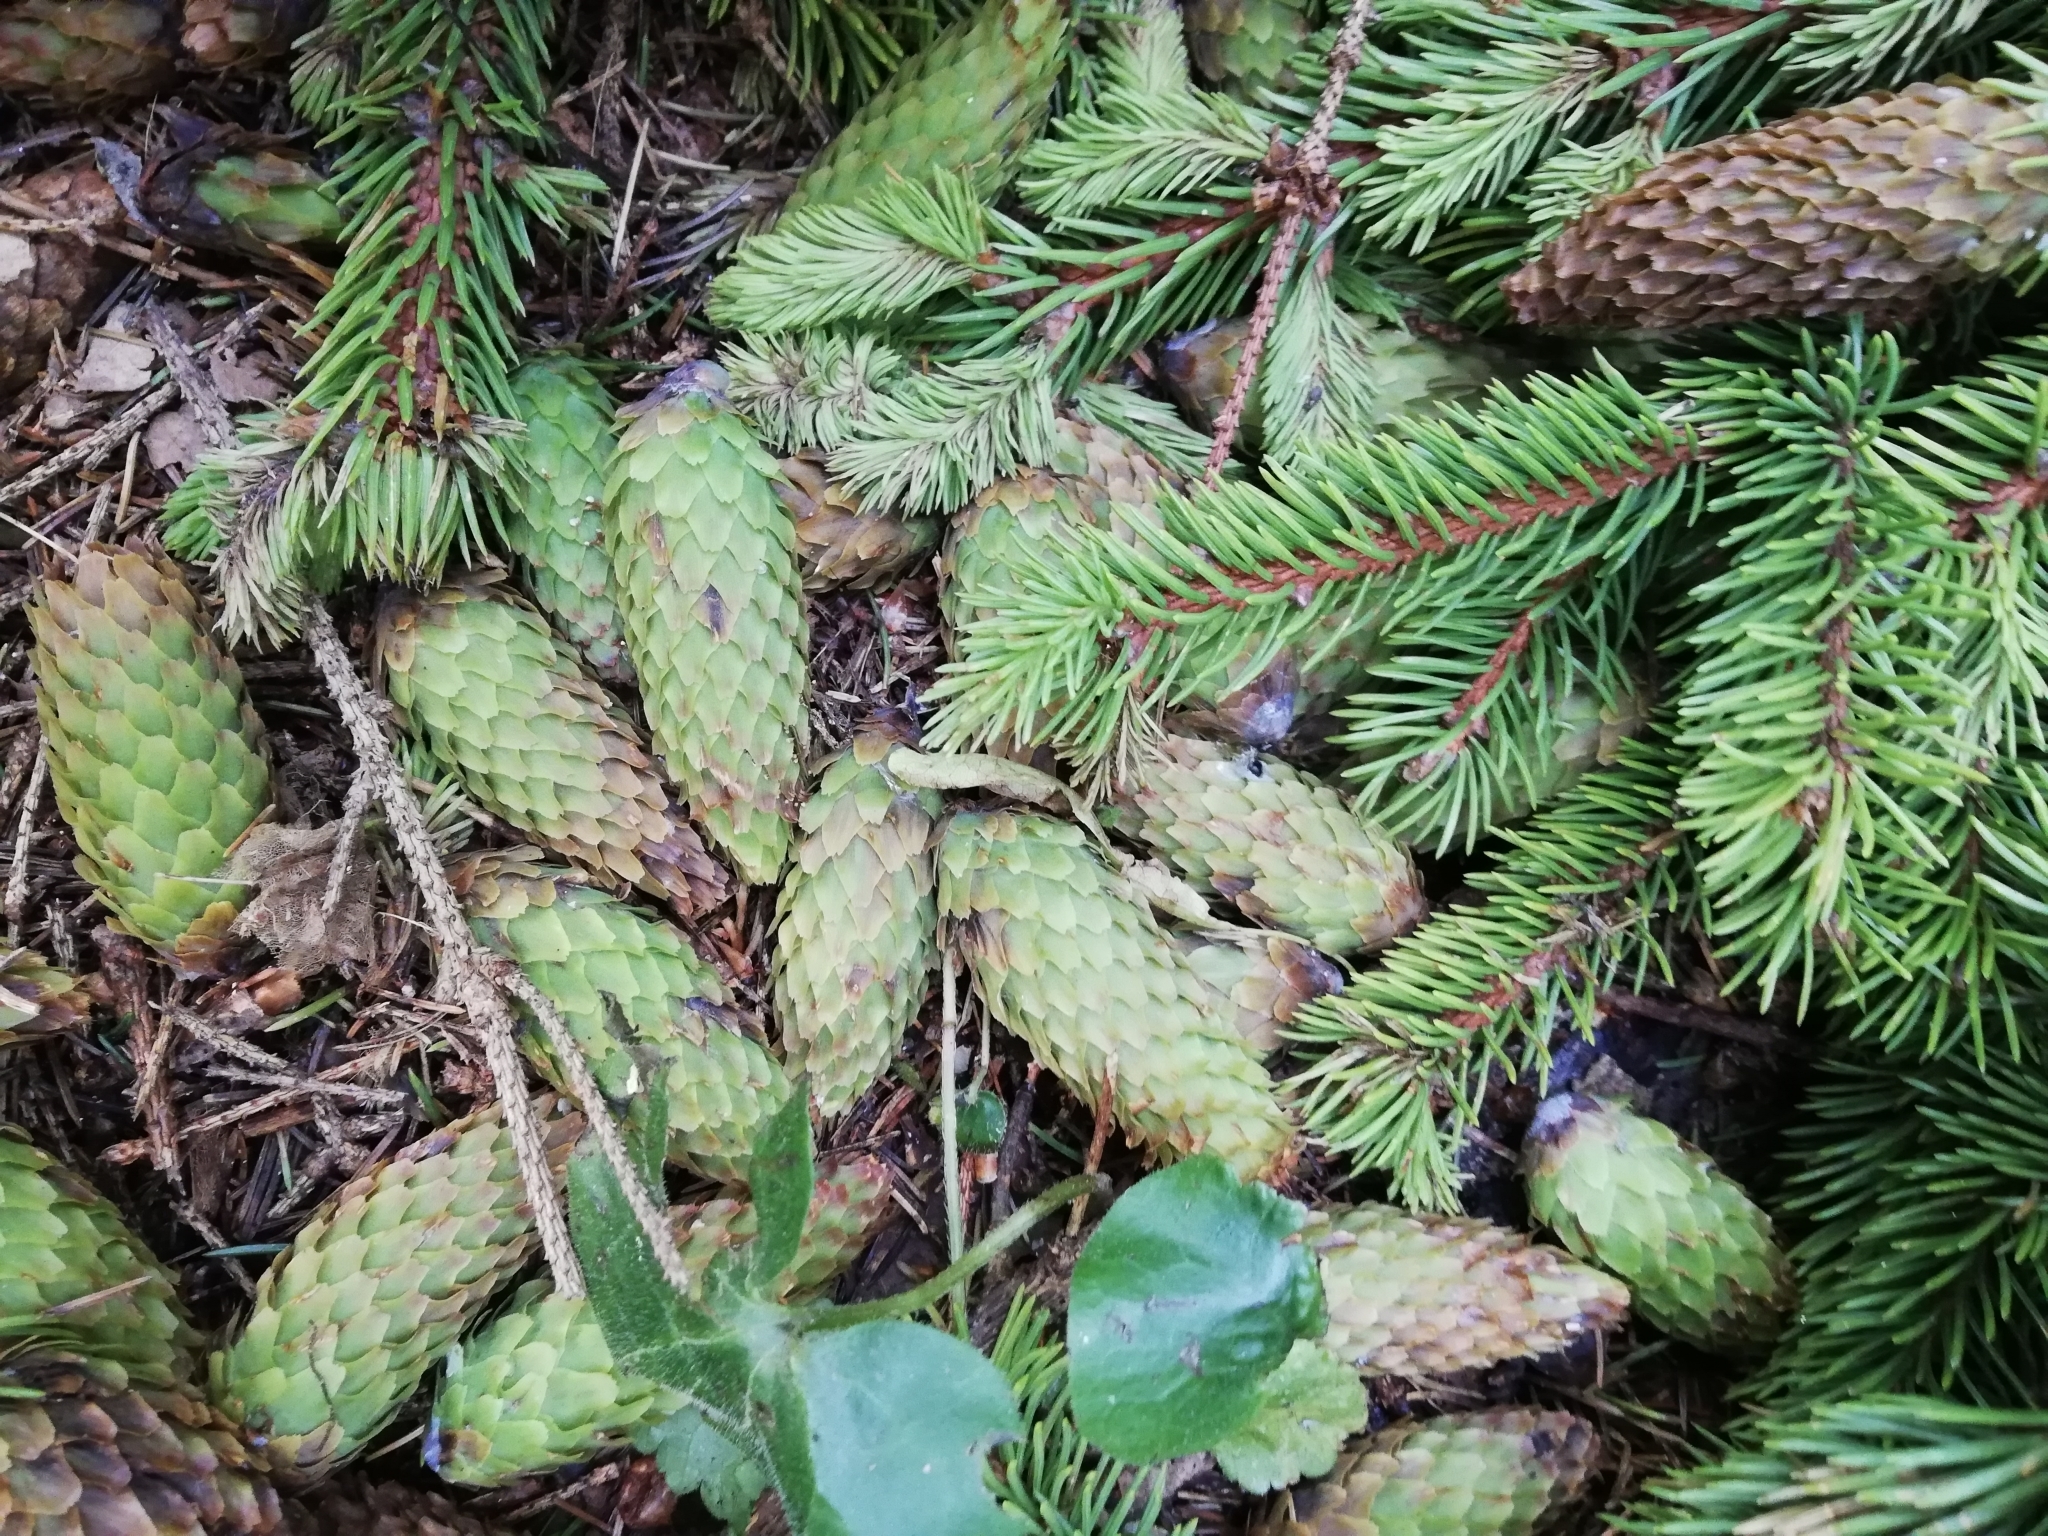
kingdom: Plantae
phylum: Tracheophyta
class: Pinopsida
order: Pinales
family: Pinaceae
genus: Picea
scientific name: Picea abies
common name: Norway spruce
